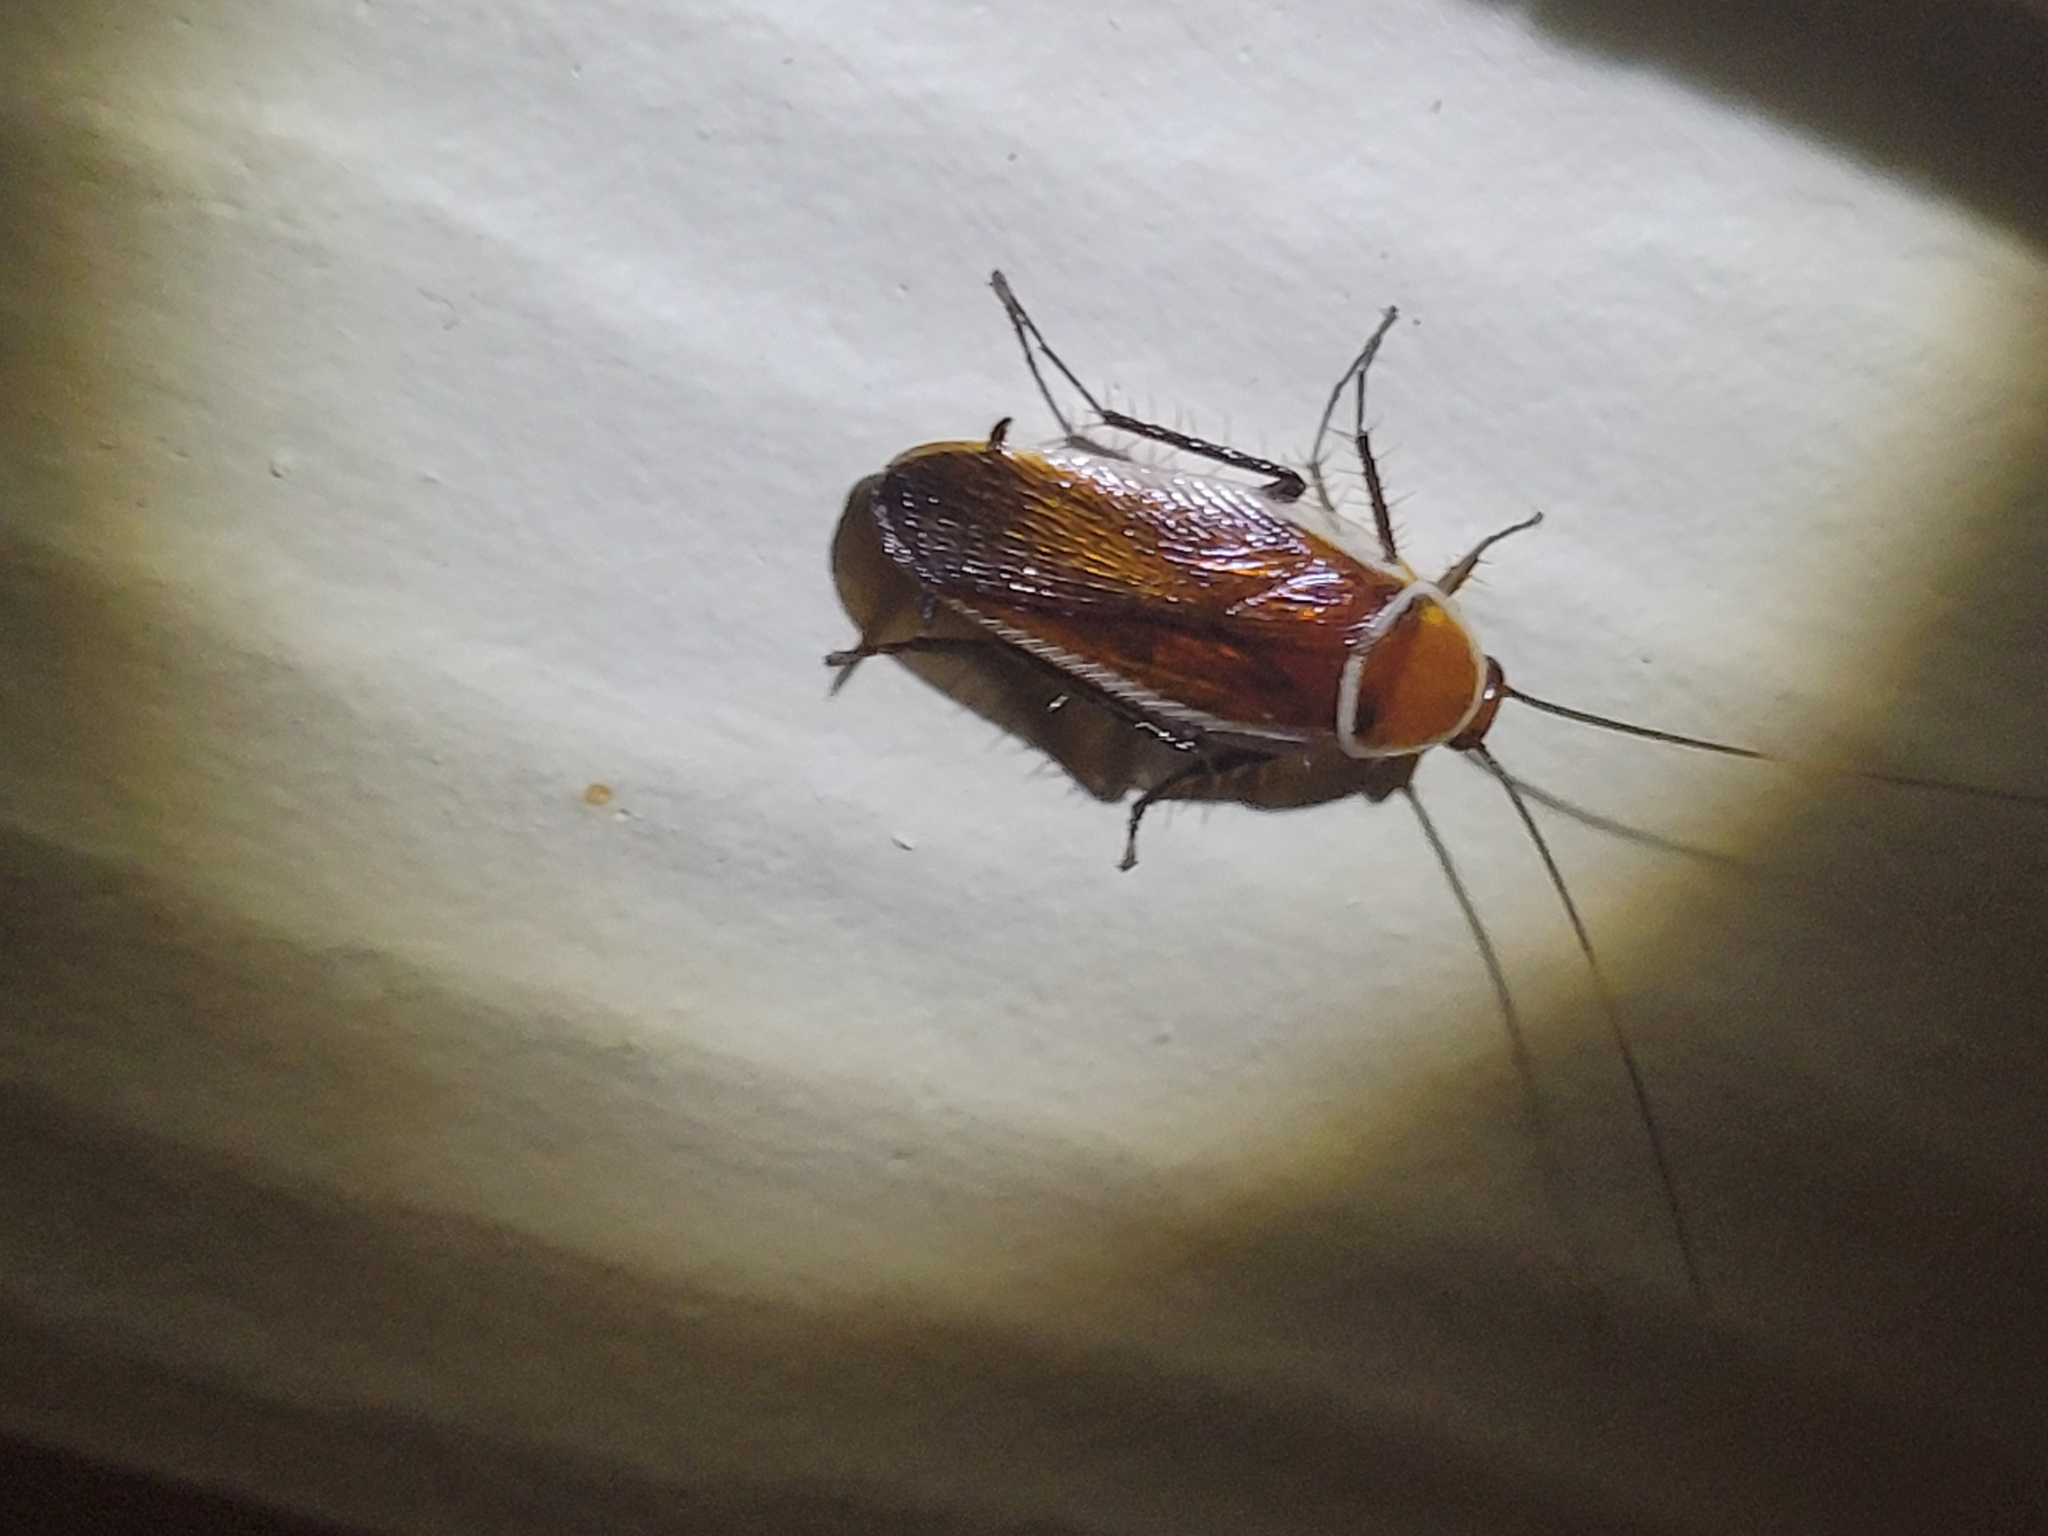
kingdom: Animalia
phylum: Arthropoda
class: Insecta
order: Blattodea
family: Ectobiidae
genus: Pseudomops
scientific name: Pseudomops septentrionalis
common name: Pale-bordered field cockroach
